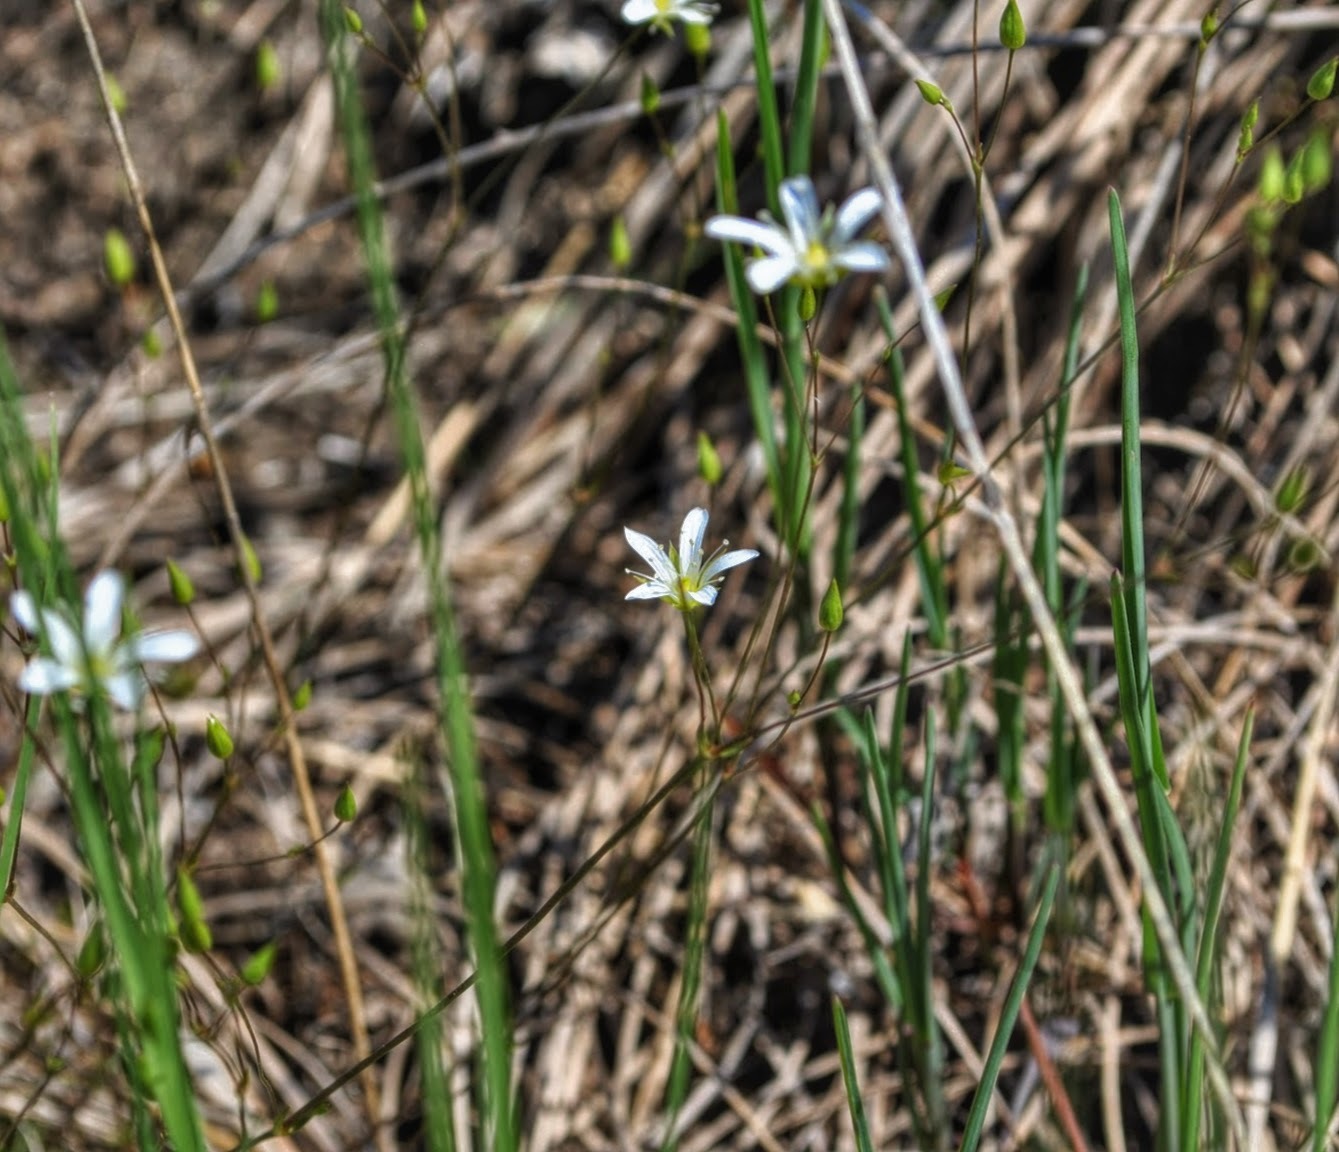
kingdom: Plantae
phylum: Tracheophyta
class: Magnoliopsida
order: Caryophyllales
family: Caryophyllaceae
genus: Sabulina
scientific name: Sabulina michauxii
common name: Michaux's stitchwort
